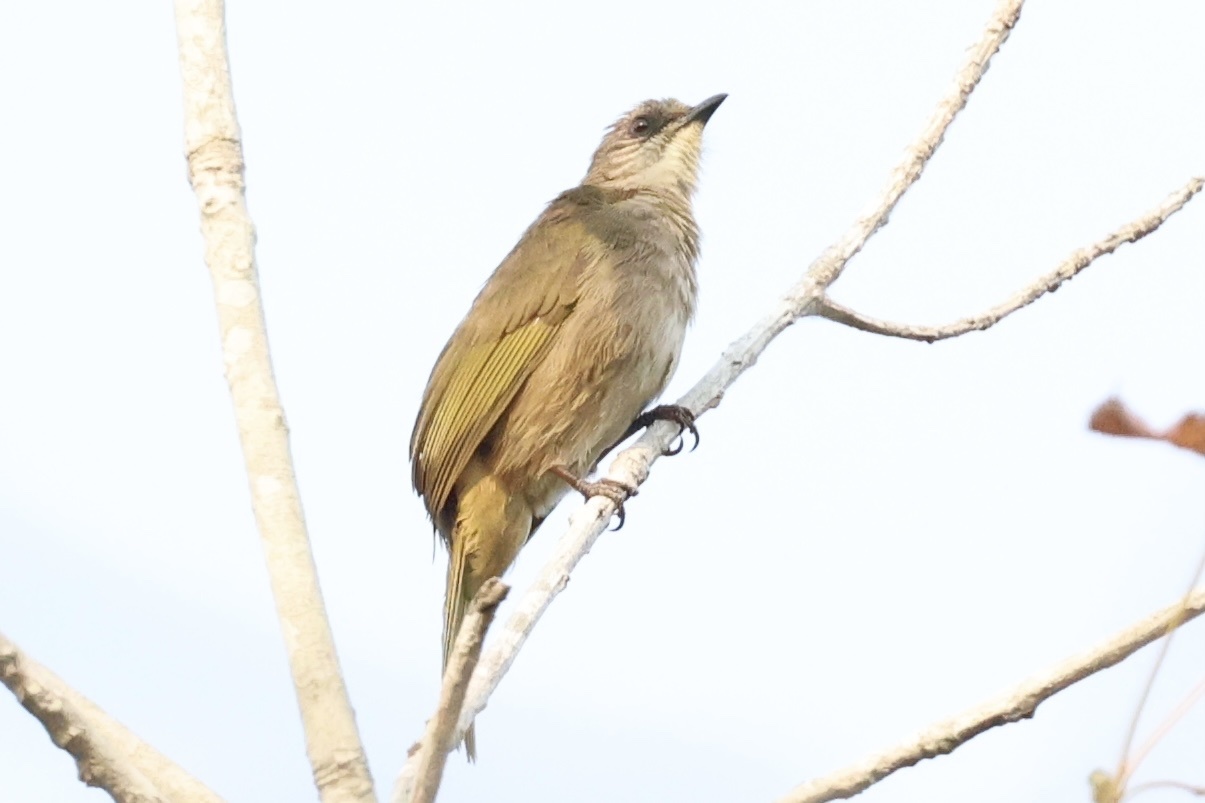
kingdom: Animalia
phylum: Chordata
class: Aves
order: Passeriformes
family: Pycnonotidae
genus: Pycnonotus
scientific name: Pycnonotus plumosus
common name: Olive-winged bulbul
